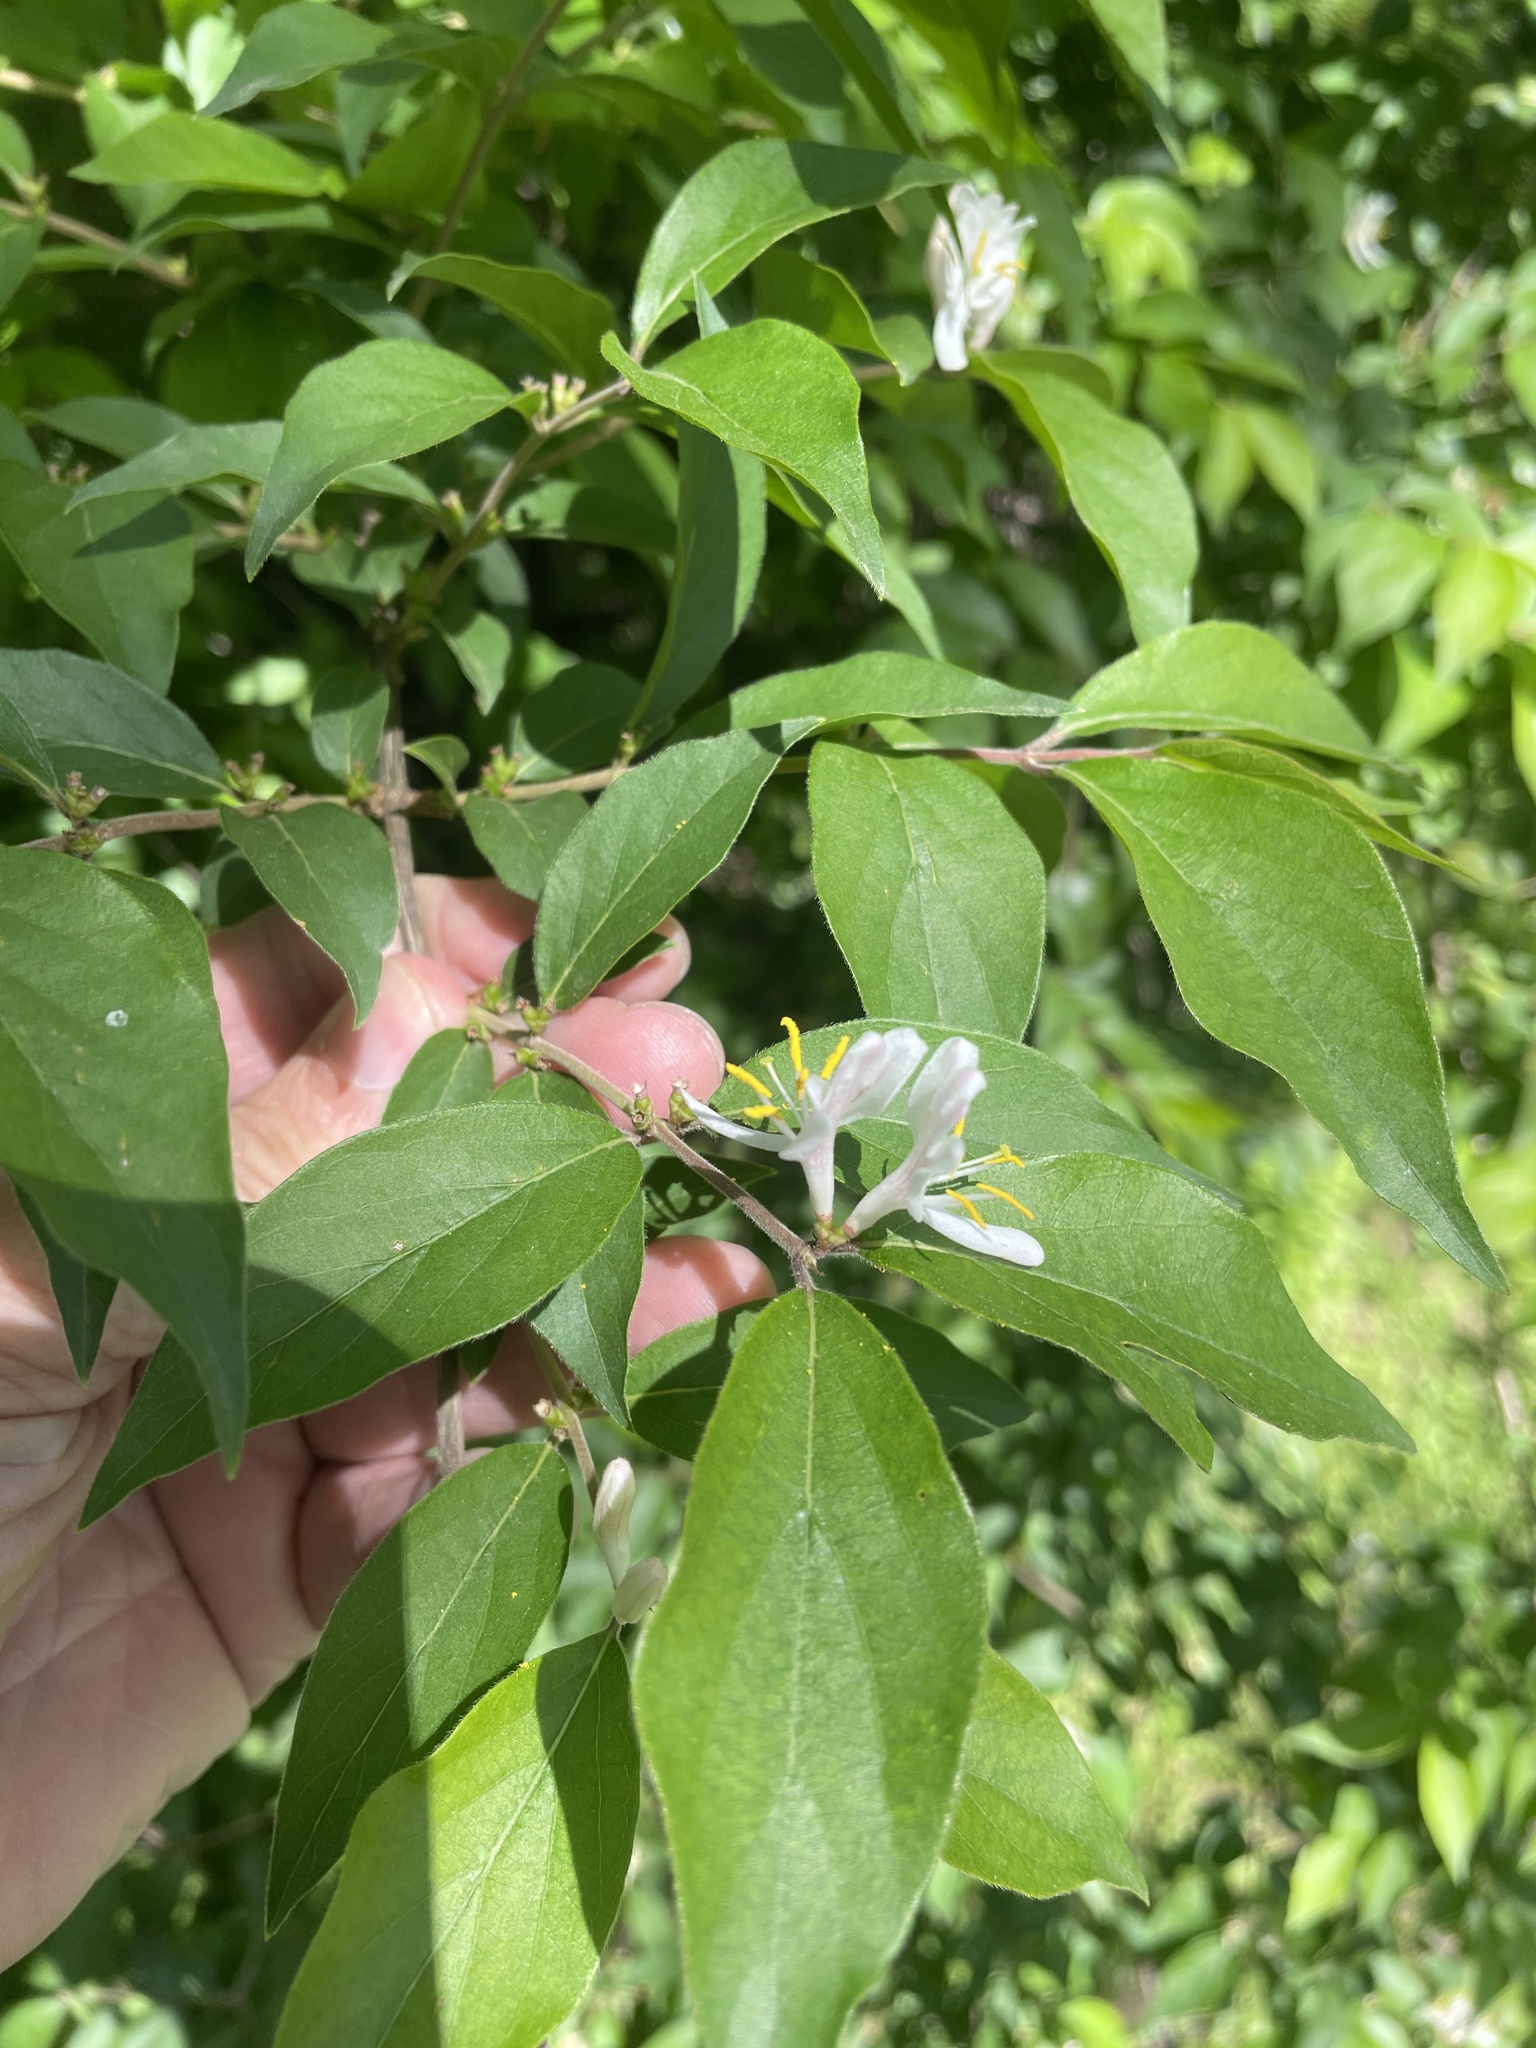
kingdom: Plantae
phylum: Tracheophyta
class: Magnoliopsida
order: Dipsacales
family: Caprifoliaceae
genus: Lonicera
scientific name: Lonicera maackii
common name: Amur honeysuckle
